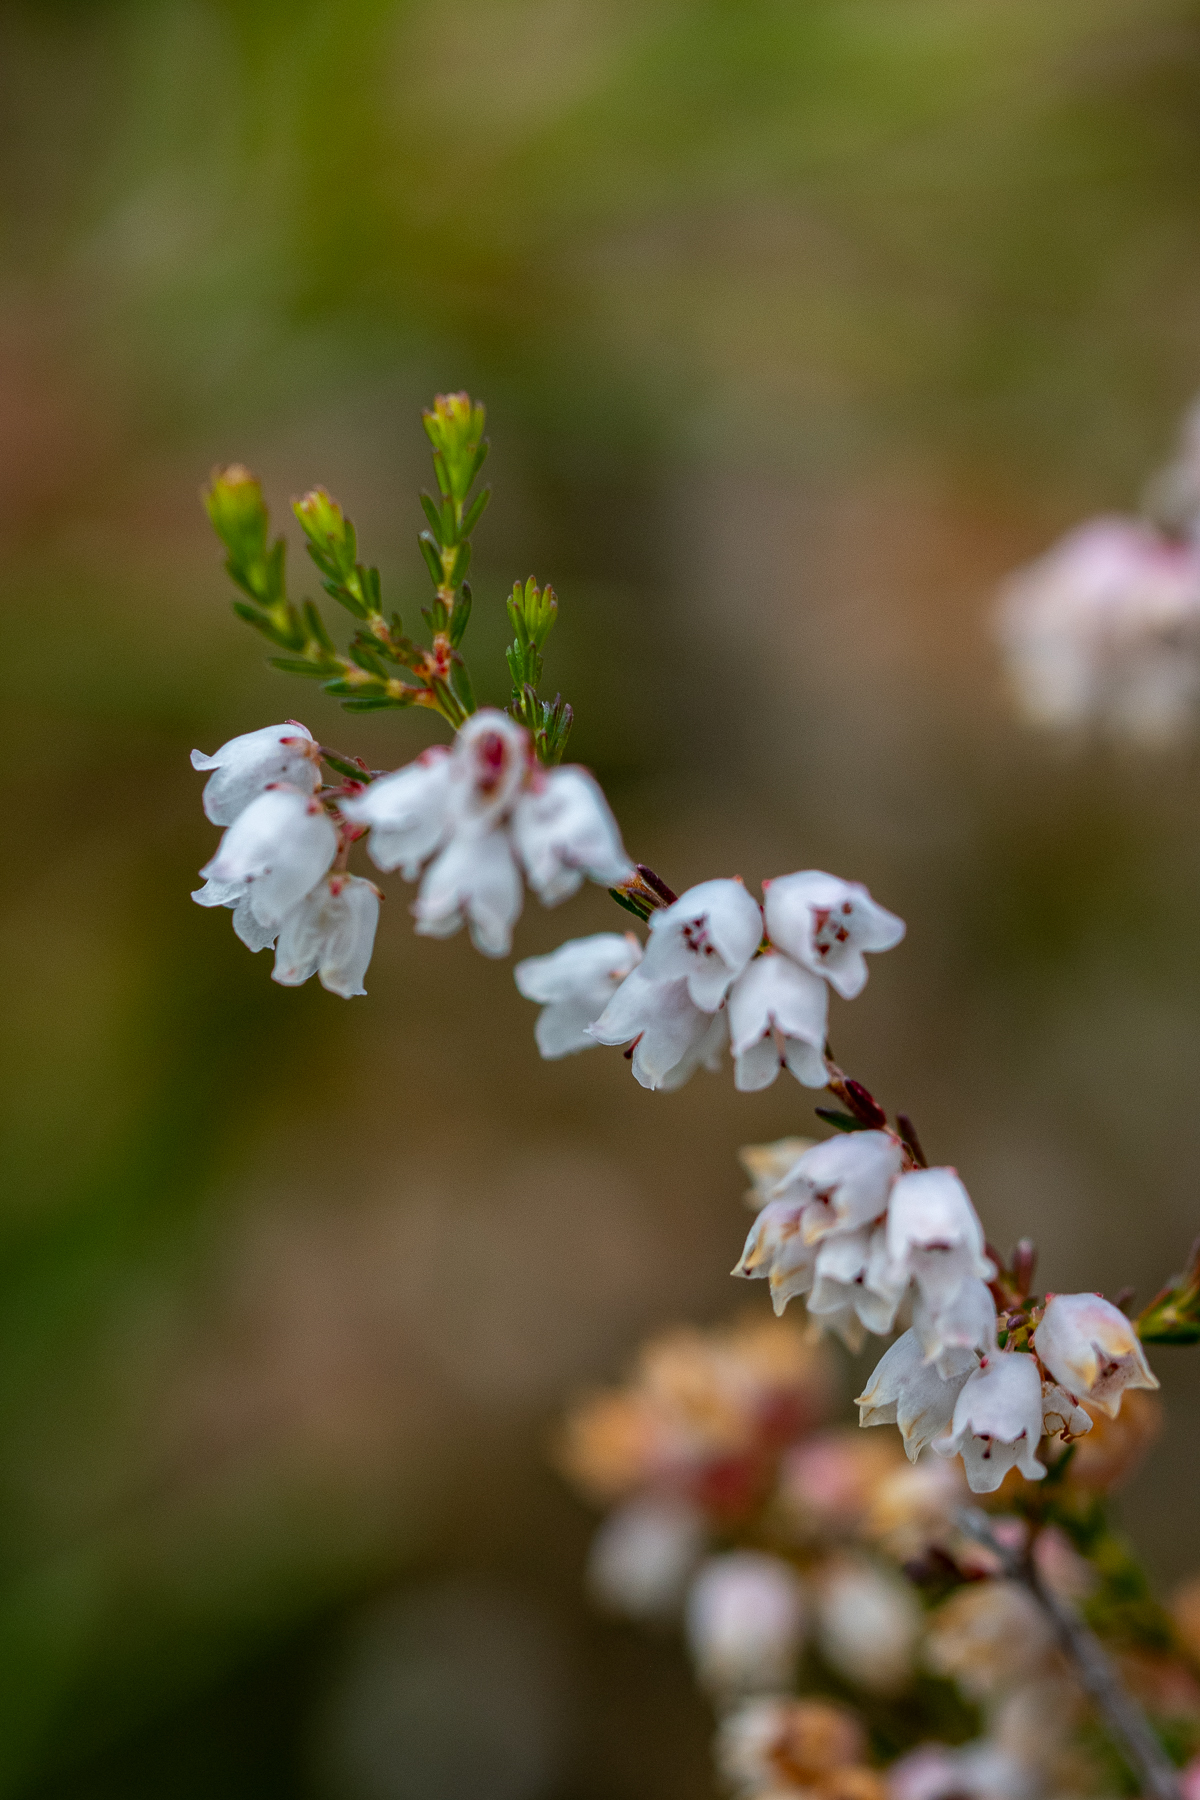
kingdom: Plantae
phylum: Tracheophyta
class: Magnoliopsida
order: Ericales
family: Ericaceae
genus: Erica
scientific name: Erica quadrangularis
